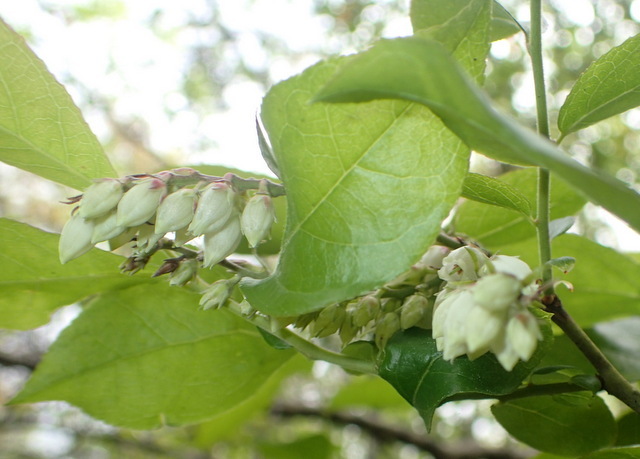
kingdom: Plantae
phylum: Tracheophyta
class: Magnoliopsida
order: Ericales
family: Ericaceae
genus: Eubotrys
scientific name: Eubotrys racemosa
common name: Fetterbush
